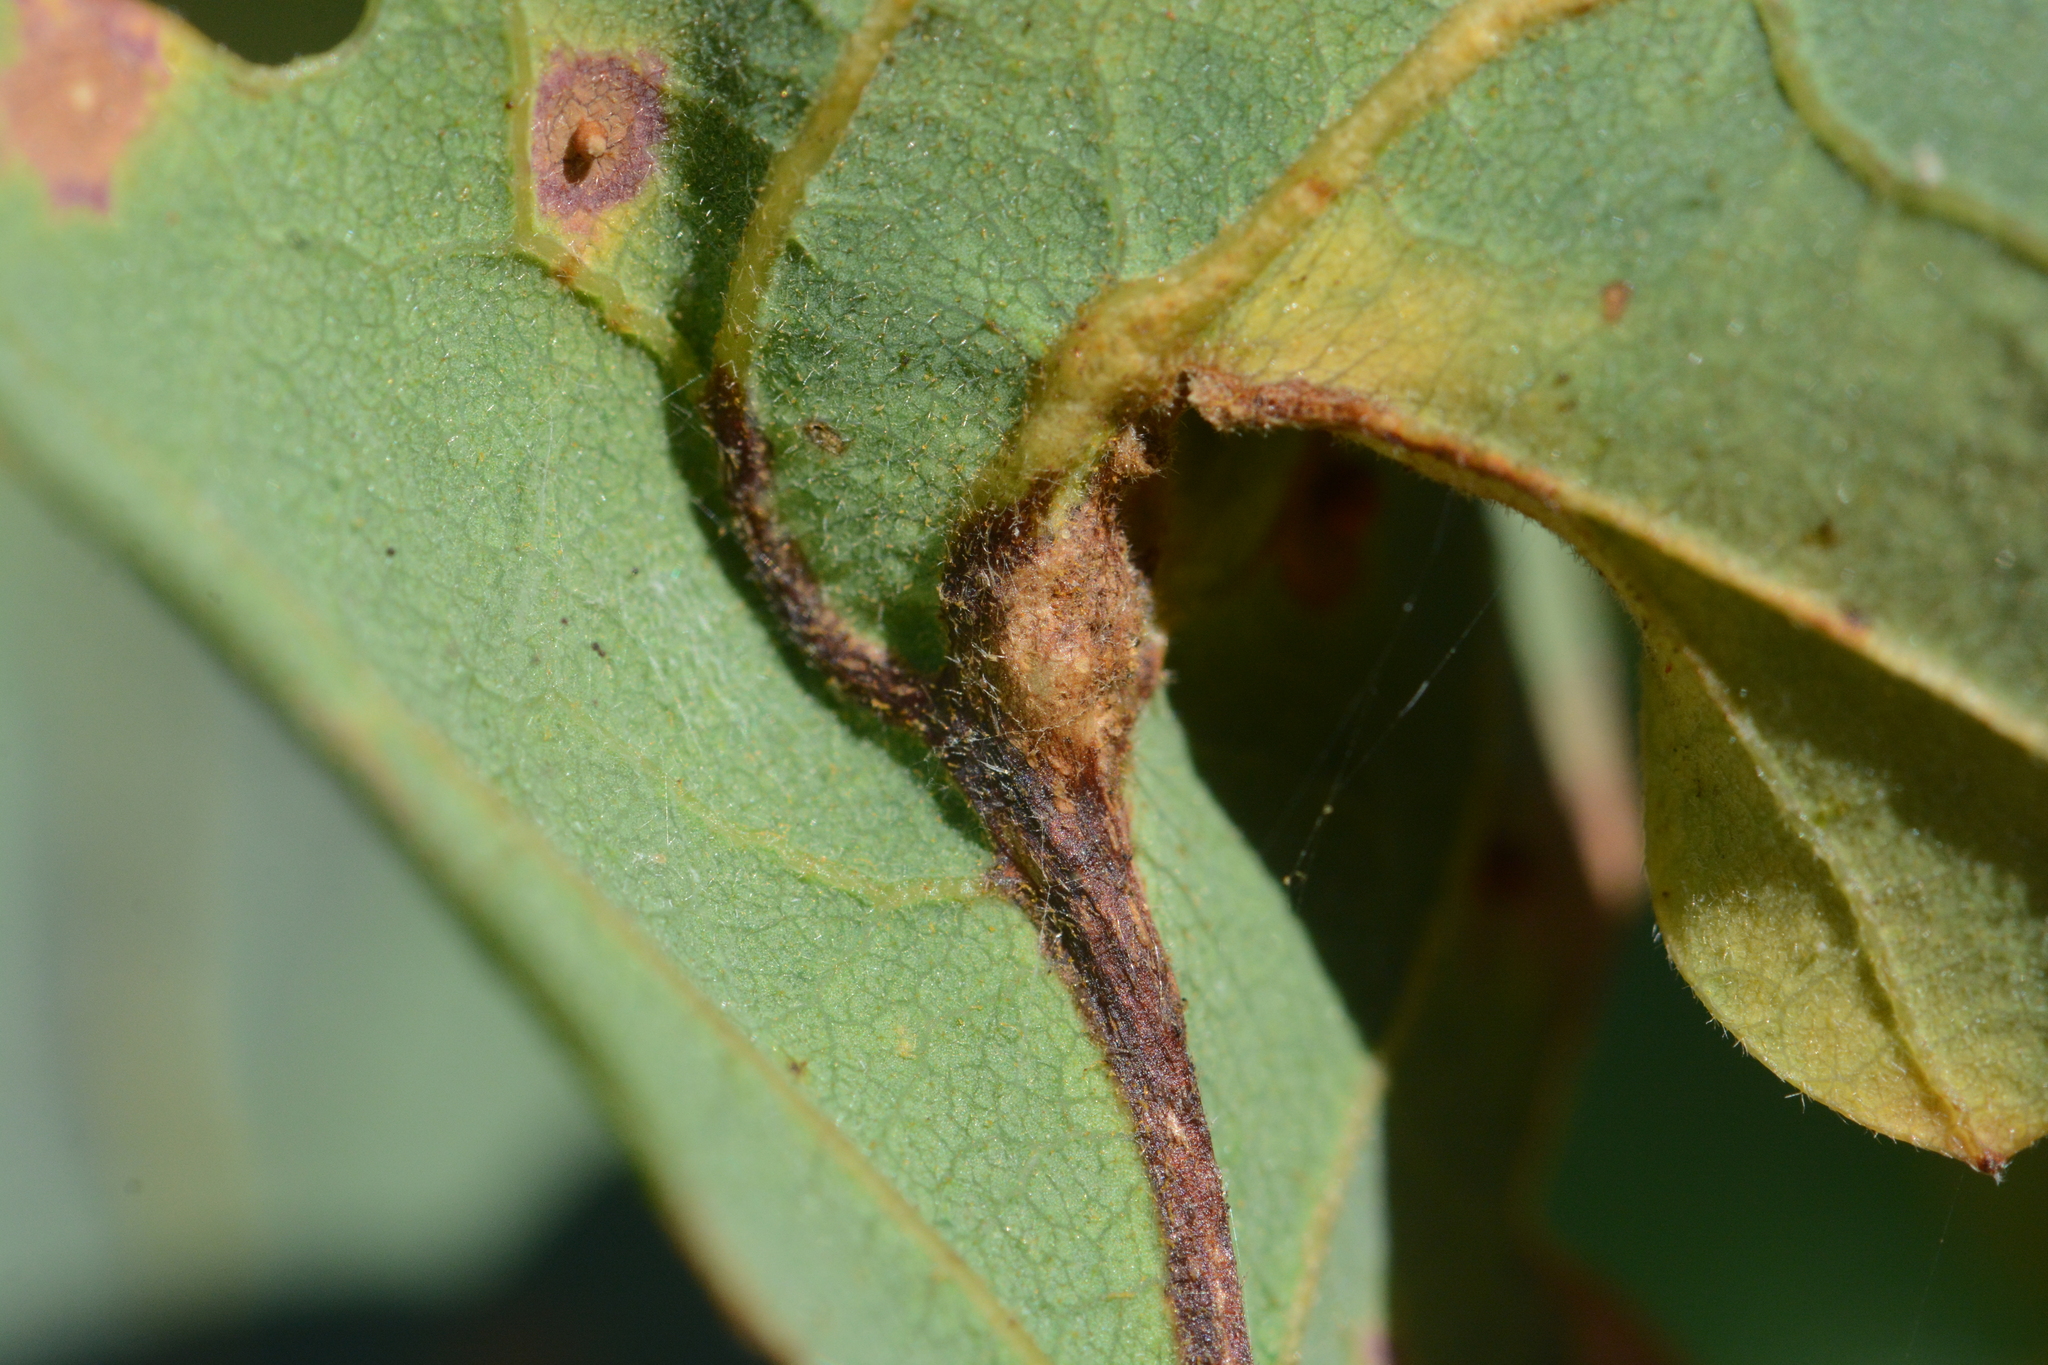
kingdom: Animalia
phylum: Arthropoda
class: Insecta
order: Hymenoptera
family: Cynipidae
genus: Andricus
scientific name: Andricus schickae
